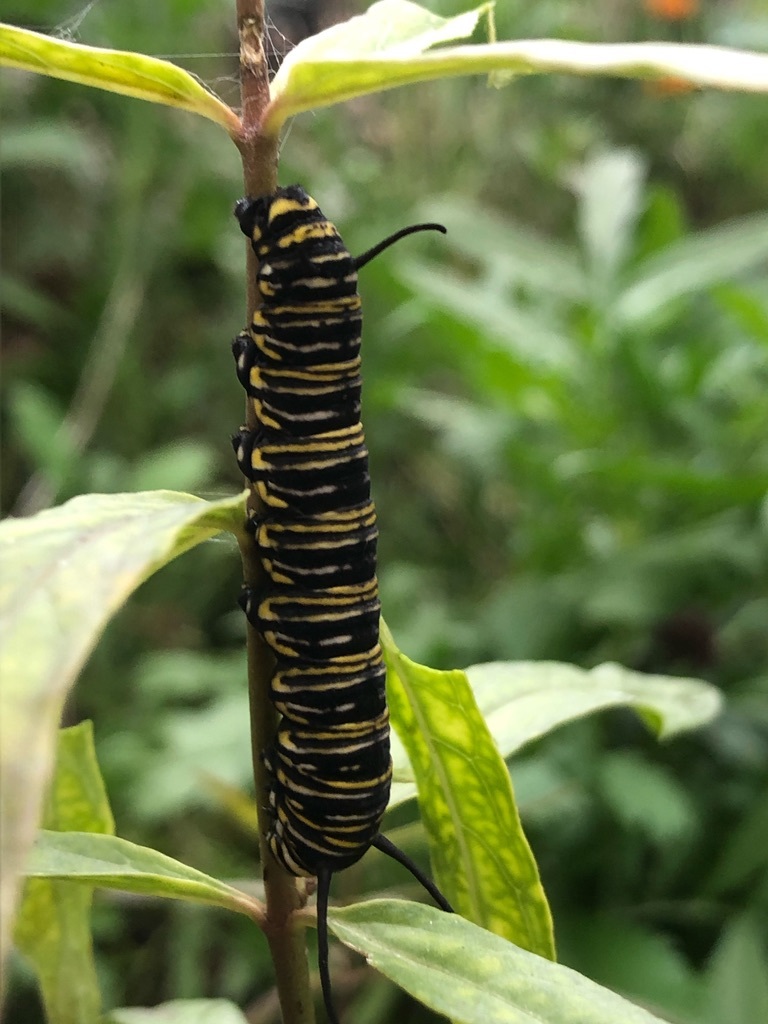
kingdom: Animalia
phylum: Arthropoda
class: Insecta
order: Lepidoptera
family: Nymphalidae
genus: Danaus
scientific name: Danaus plexippus
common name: Monarch
